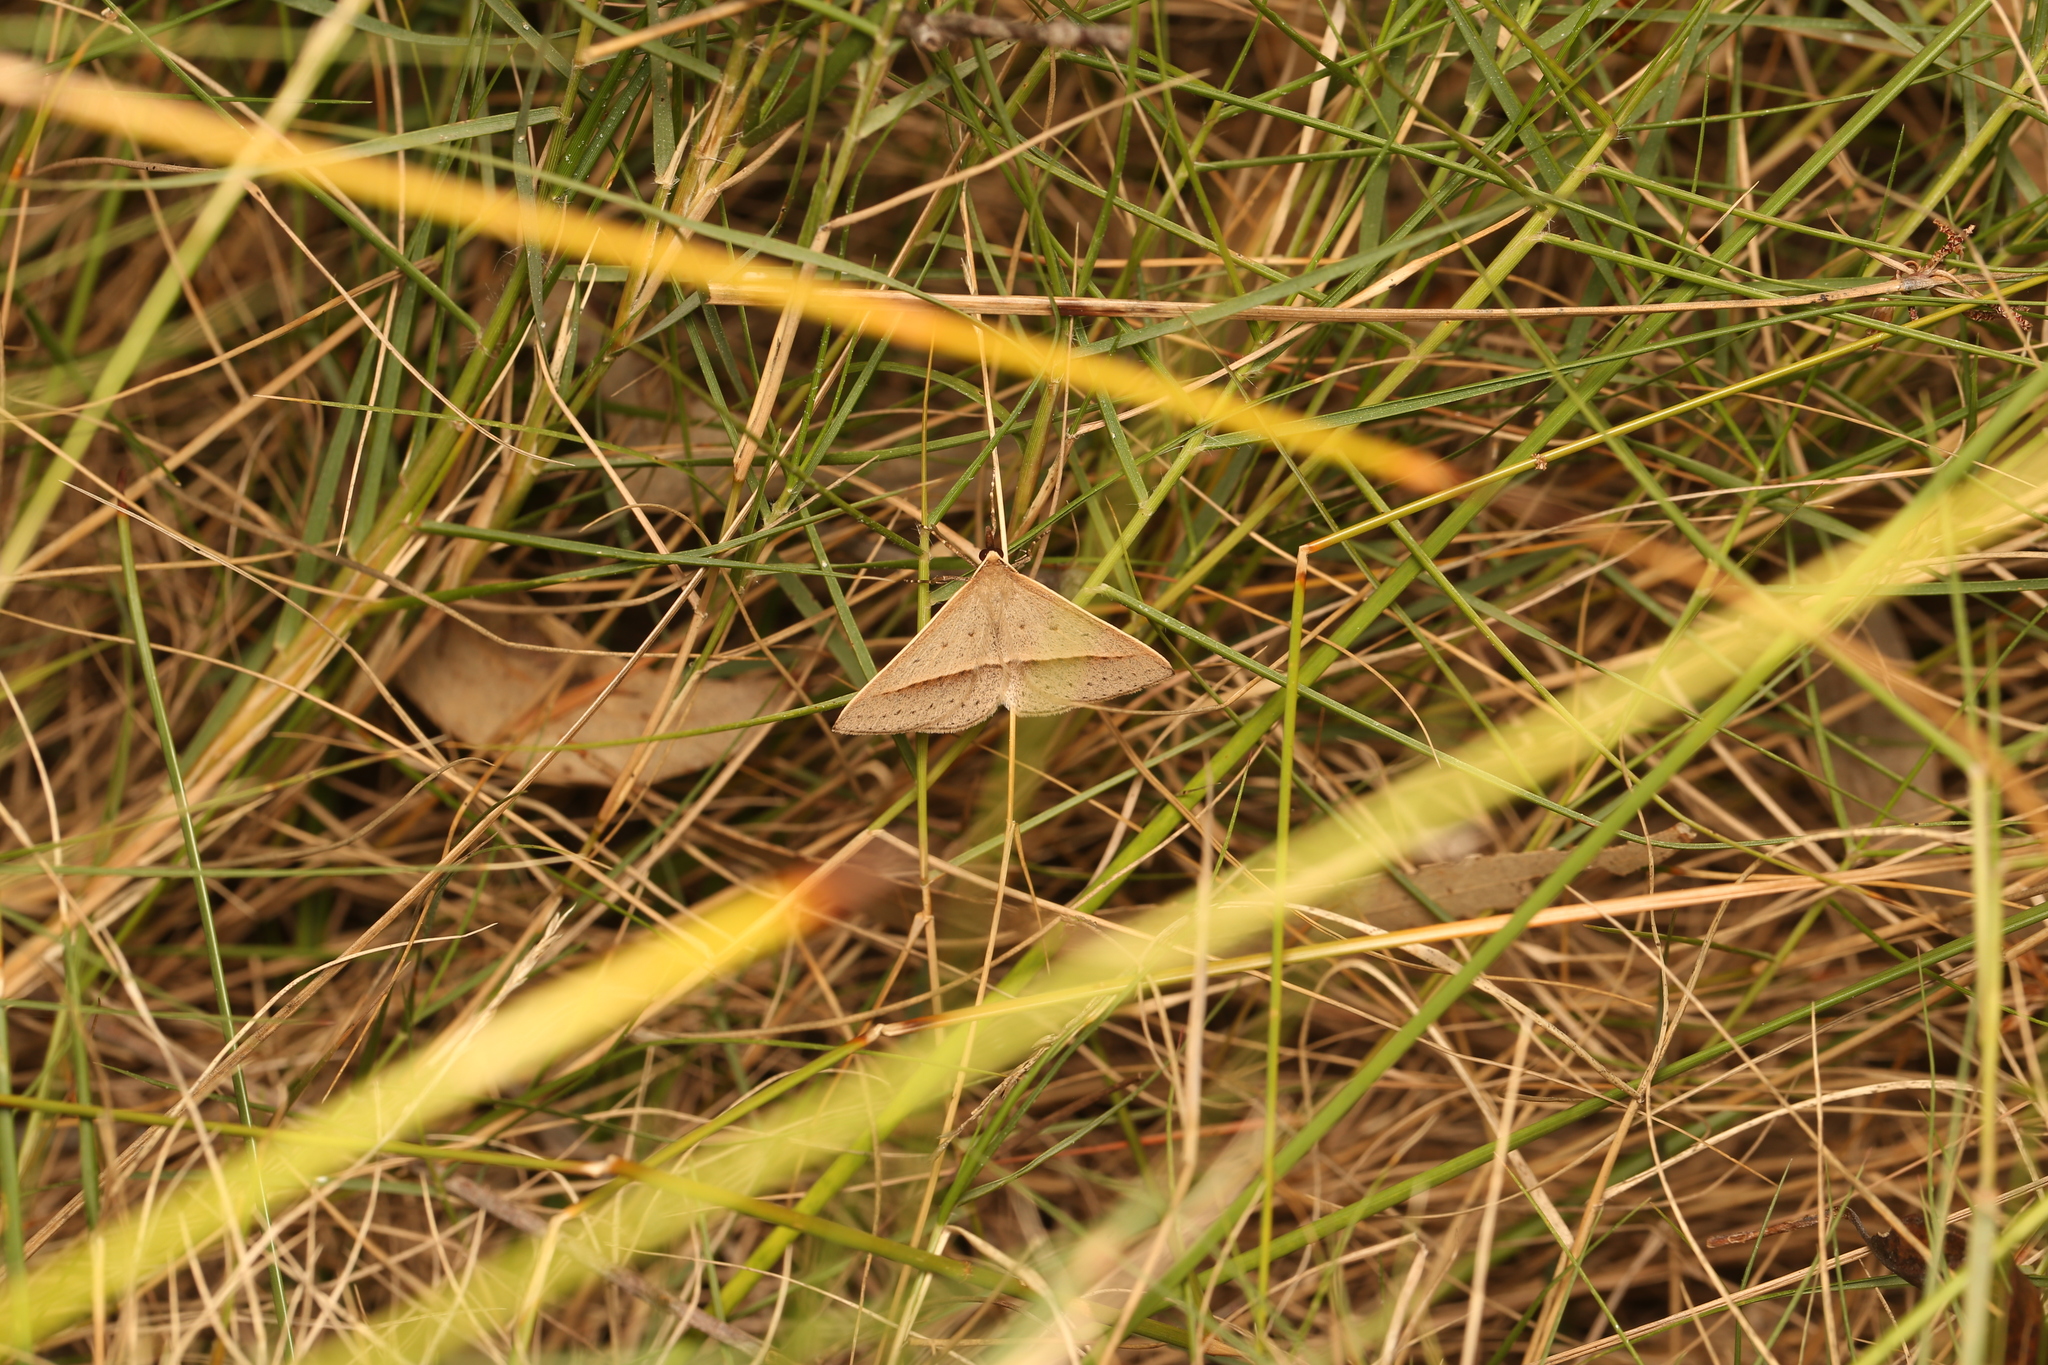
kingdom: Animalia
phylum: Arthropoda
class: Insecta
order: Lepidoptera
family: Geometridae
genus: Epidesmia
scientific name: Epidesmia tryxaria
